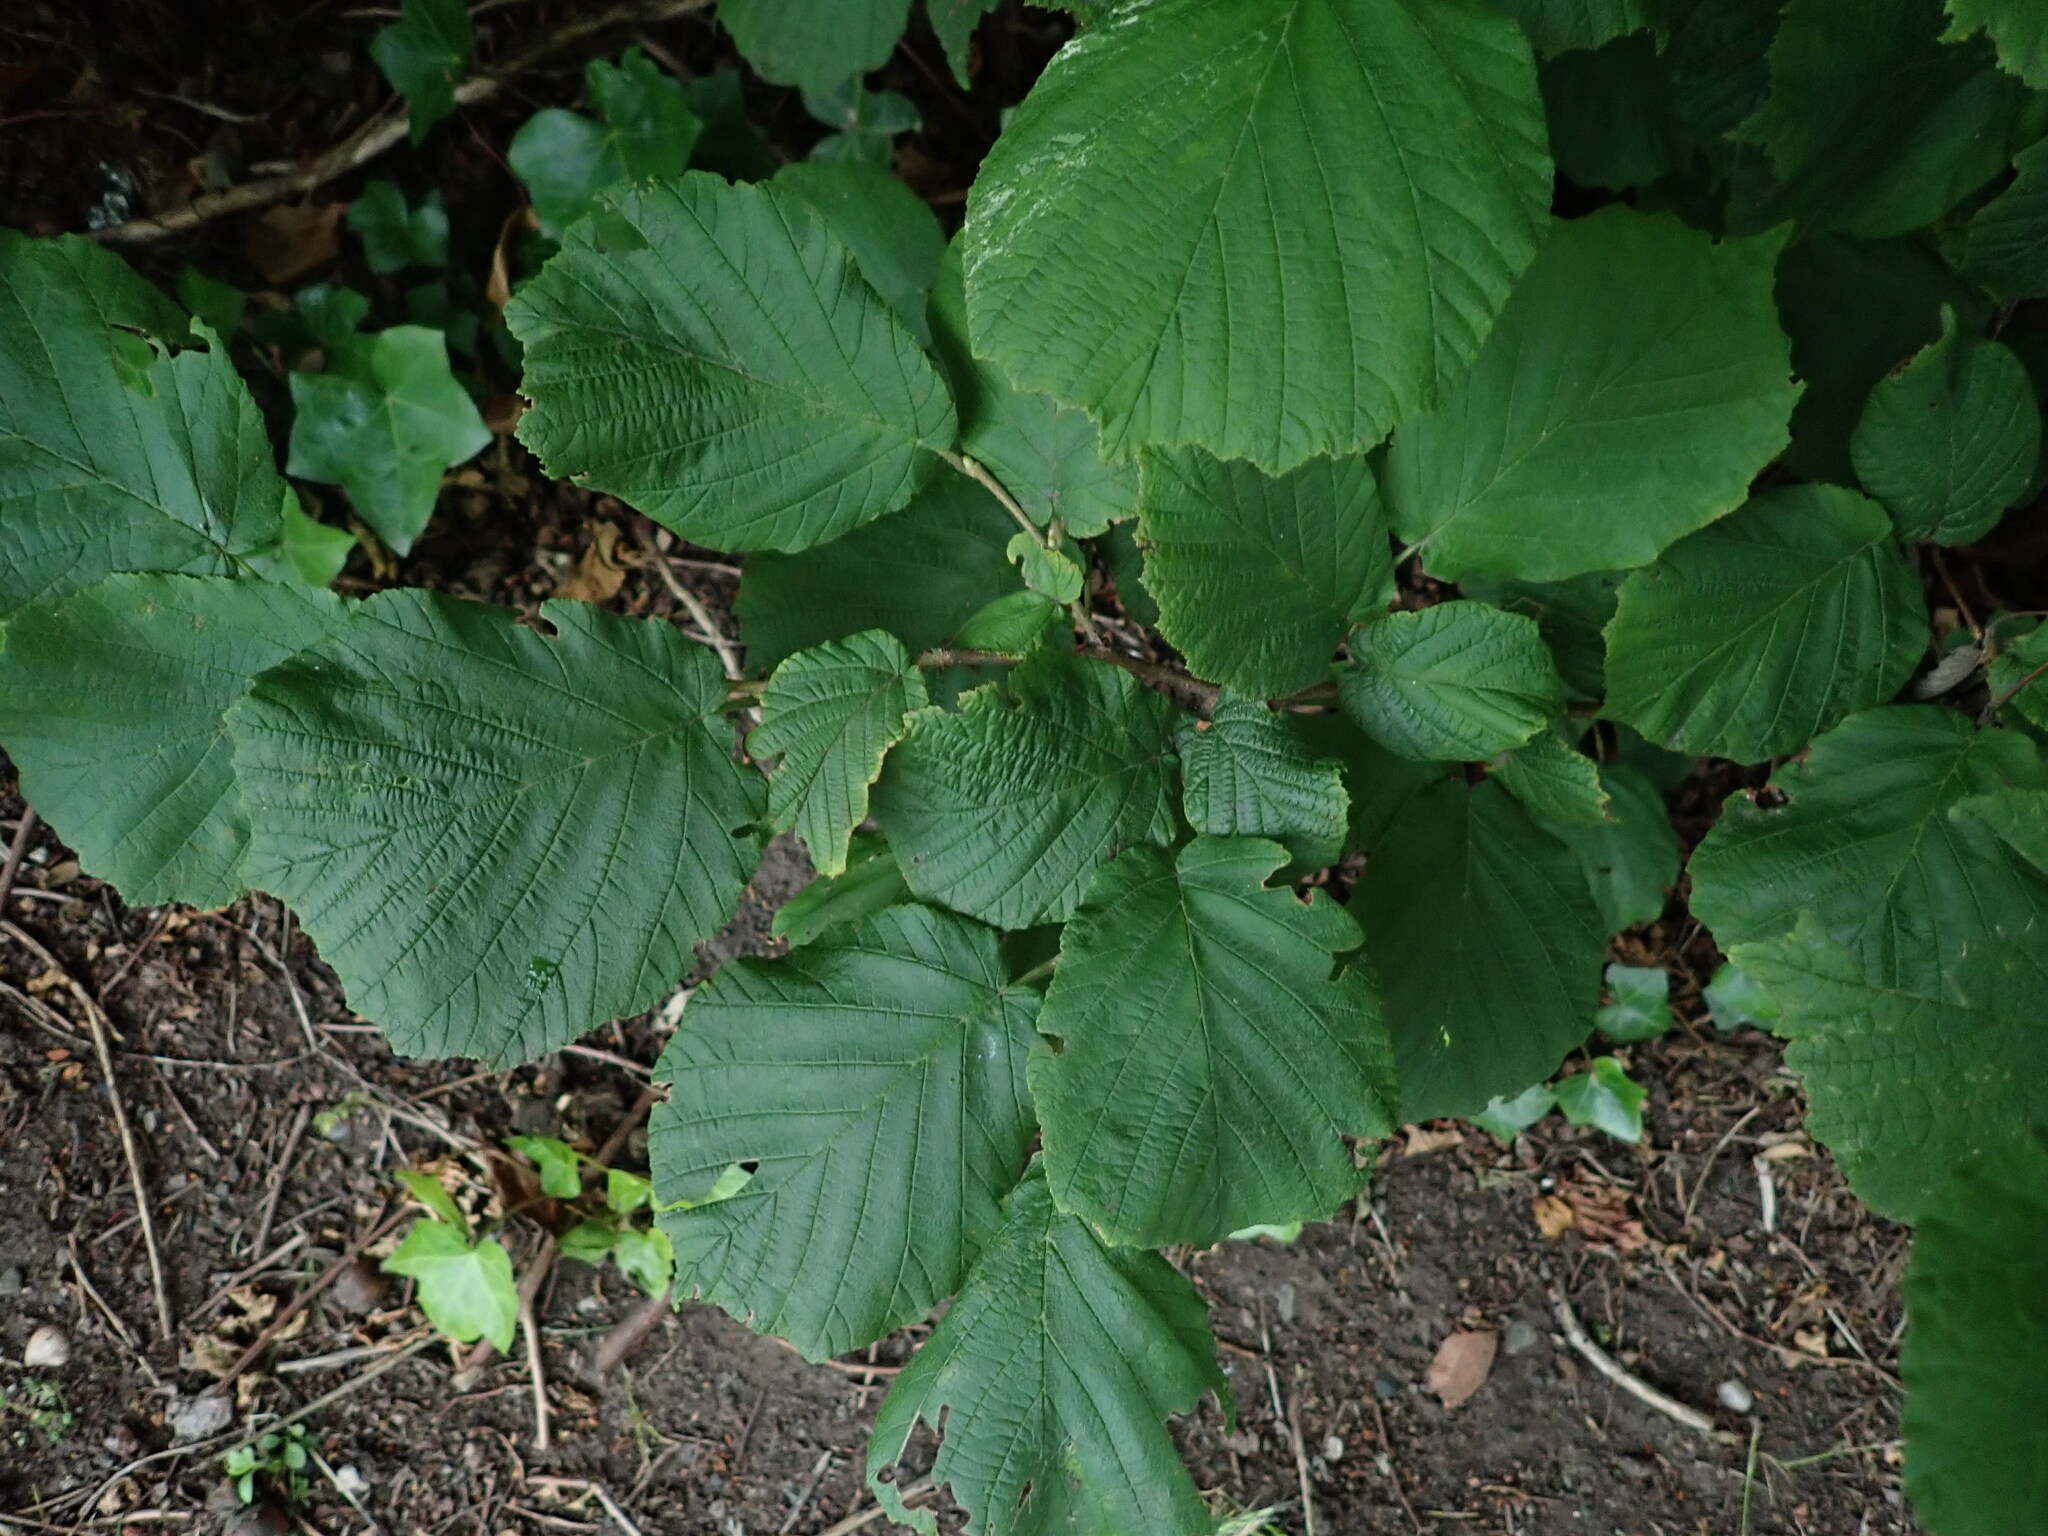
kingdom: Plantae
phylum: Tracheophyta
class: Magnoliopsida
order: Fagales
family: Betulaceae
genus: Corylus
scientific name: Corylus avellana
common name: European hazel
